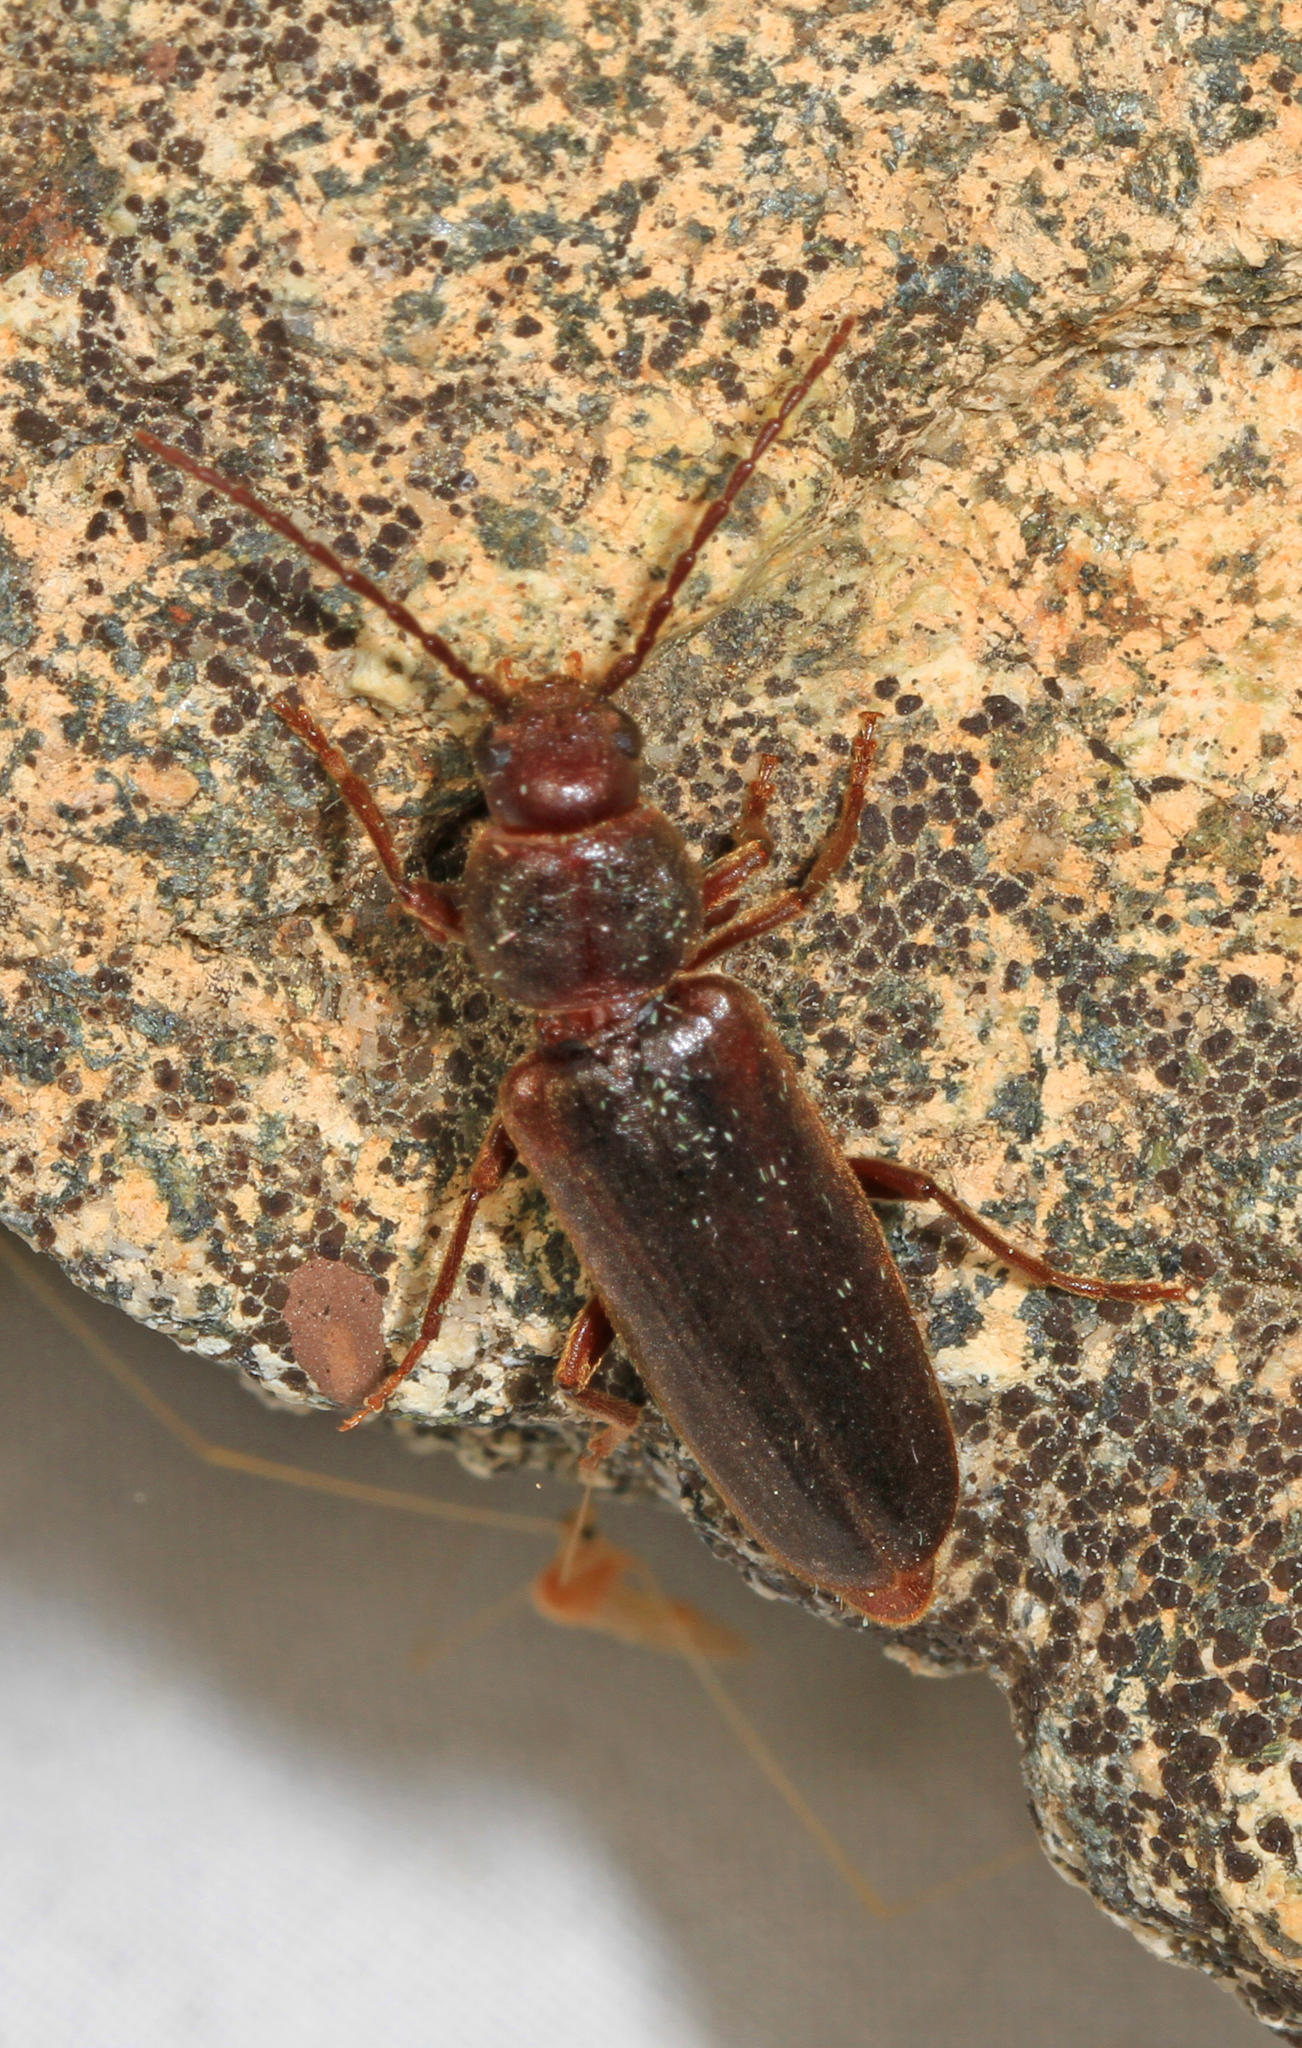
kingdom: Animalia
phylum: Arthropoda
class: Insecta
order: Coleoptera
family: Cerambycidae
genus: Arhopalus
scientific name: Arhopalus rusticus
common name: Rust pine borer
